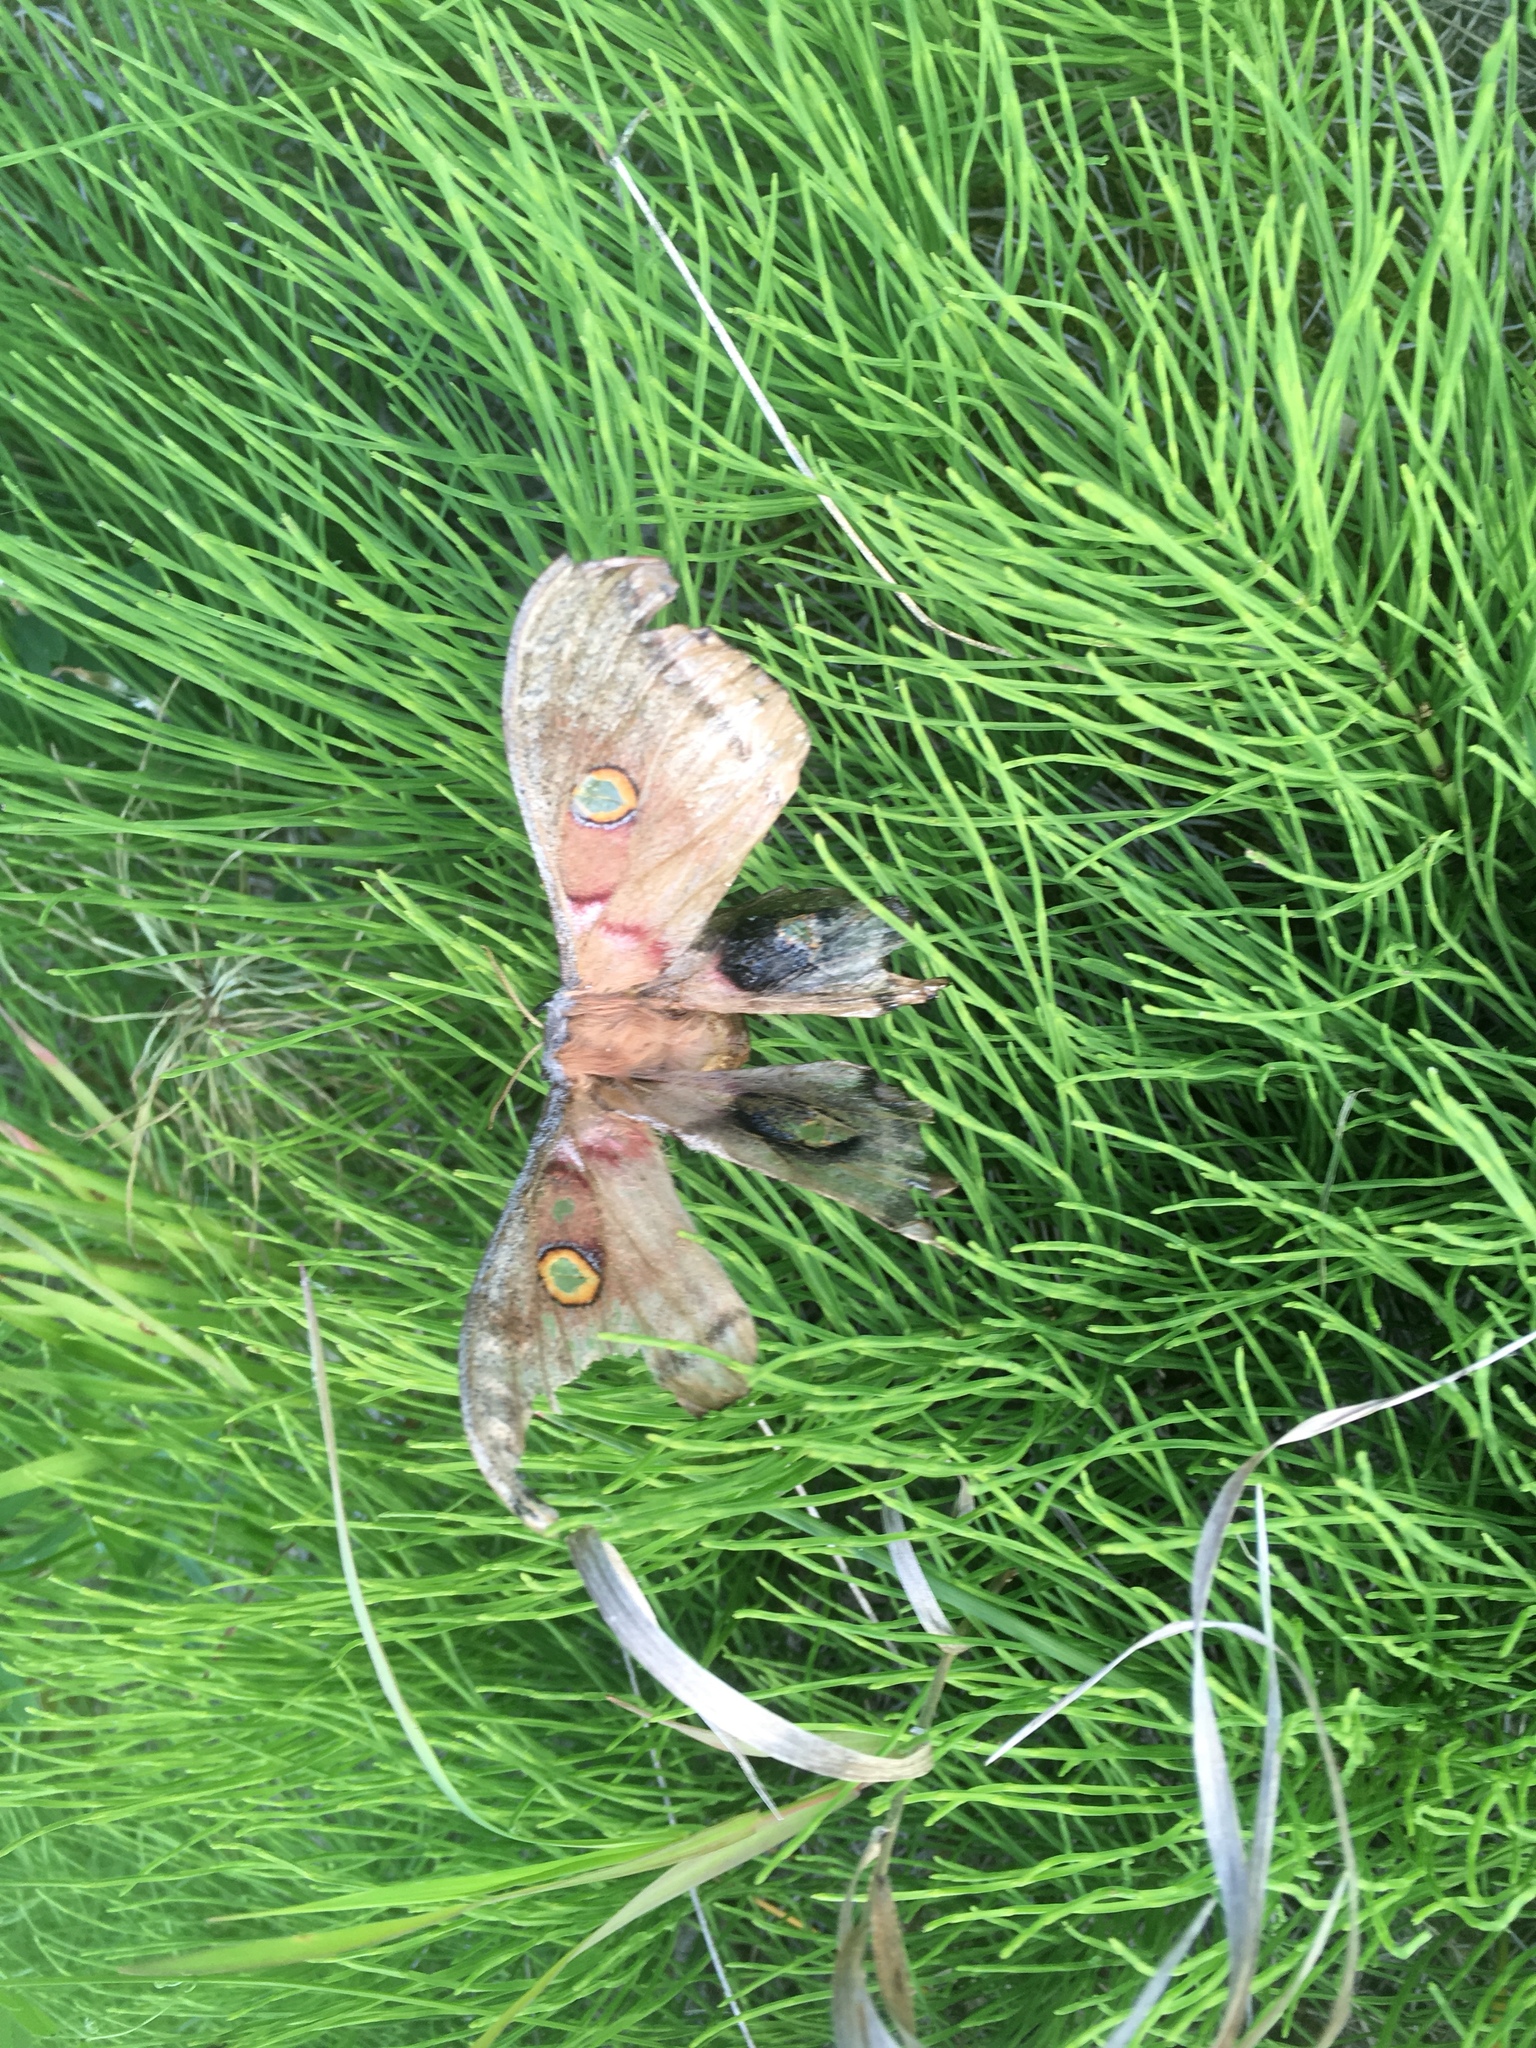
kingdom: Animalia
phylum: Arthropoda
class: Insecta
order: Lepidoptera
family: Saturniidae
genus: Antheraea
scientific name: Antheraea polyphemus
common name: Polyphemus moth
